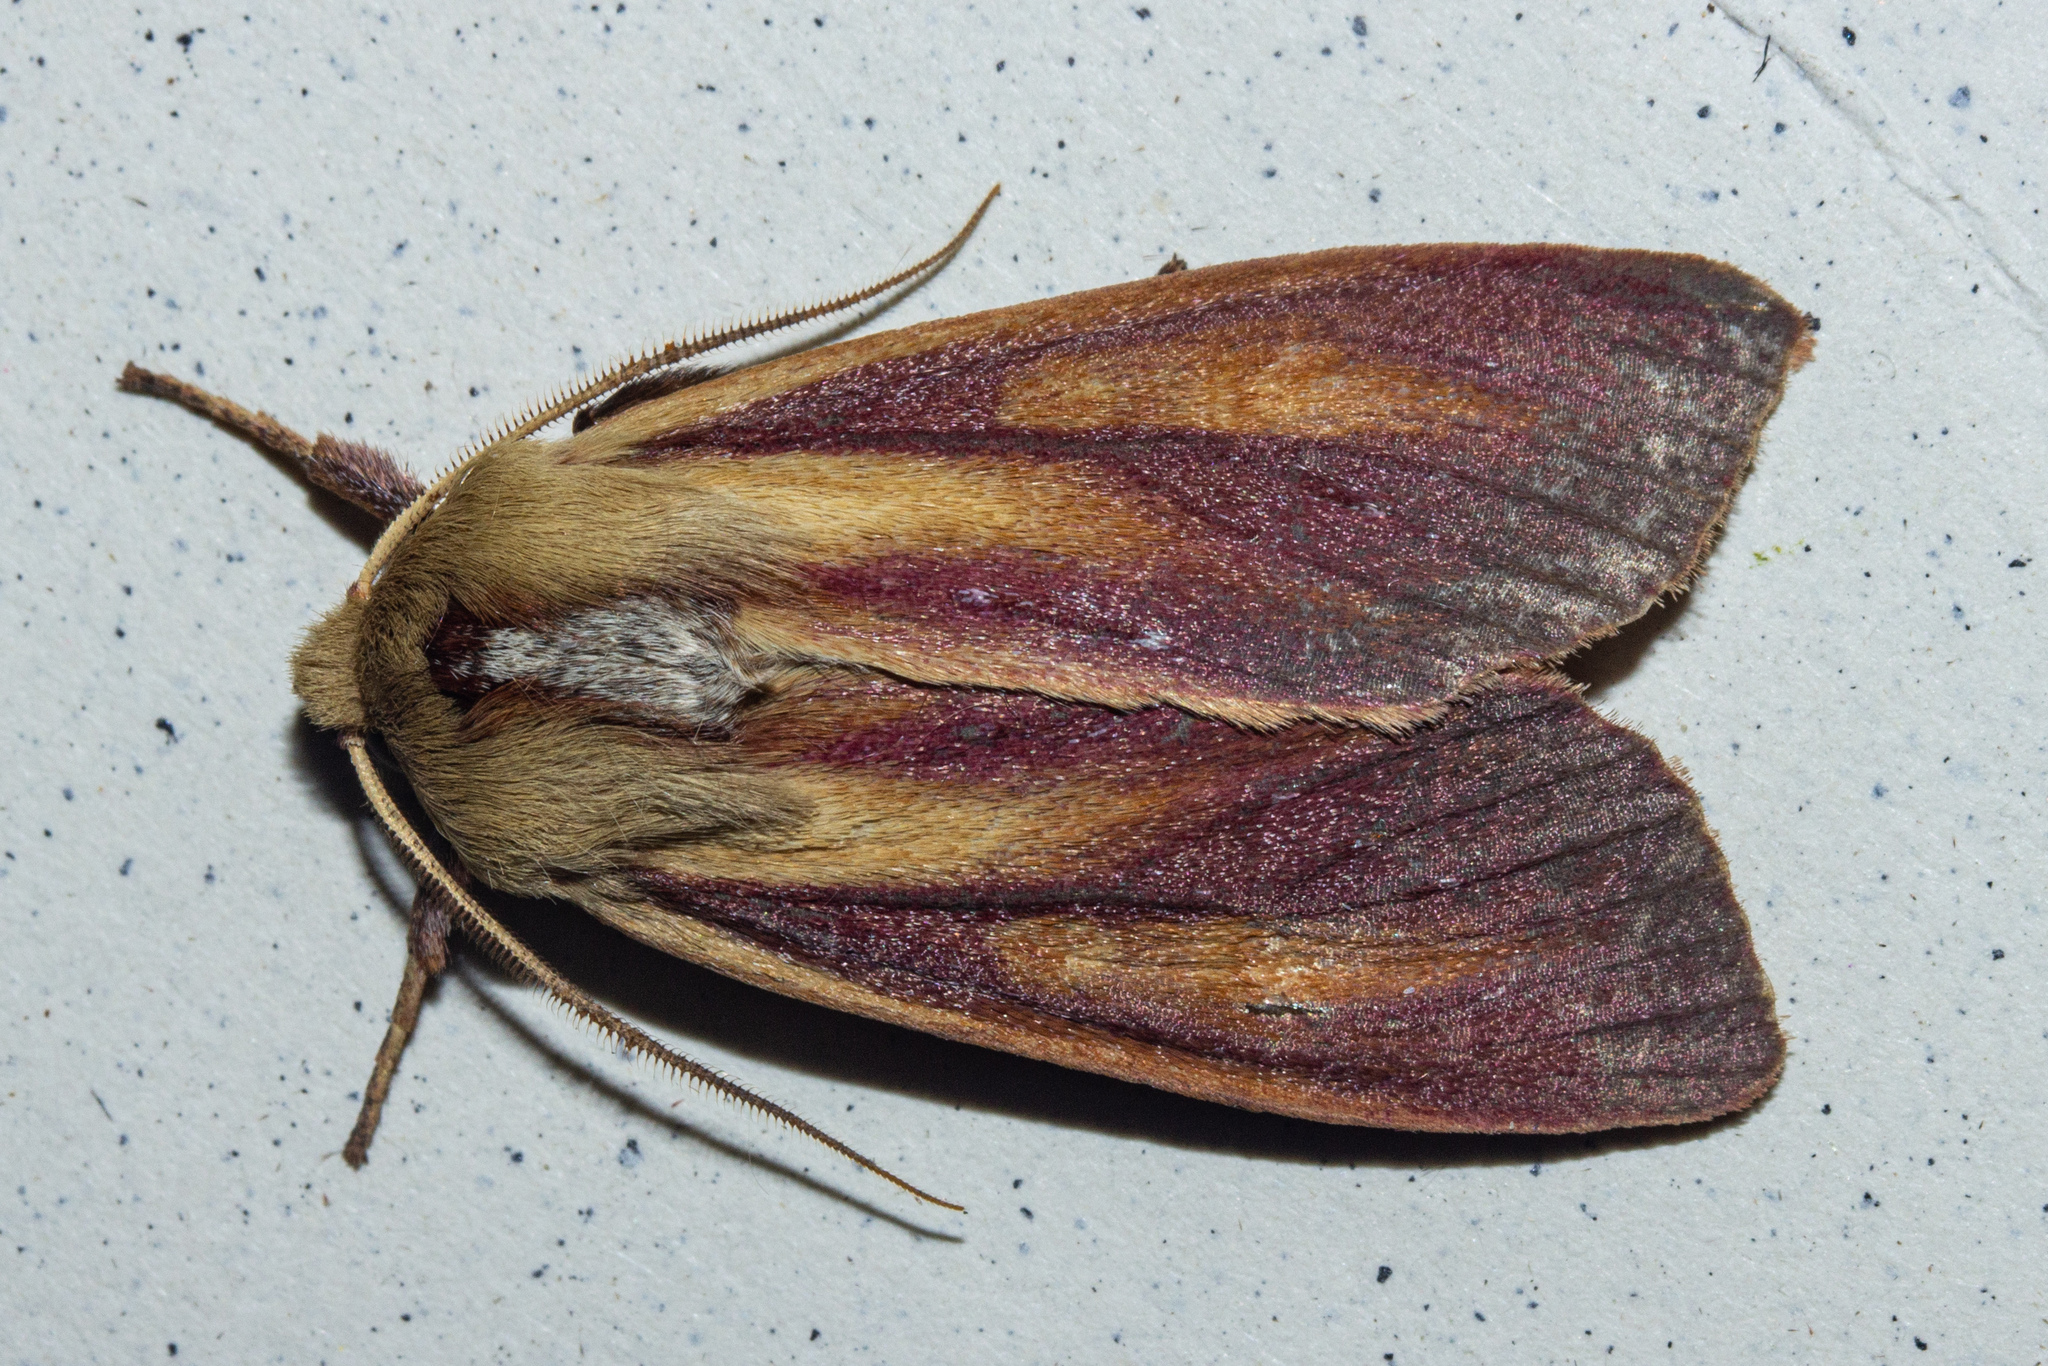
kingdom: Animalia
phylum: Arthropoda
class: Insecta
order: Lepidoptera
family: Noctuidae
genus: Ichneutica
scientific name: Ichneutica
